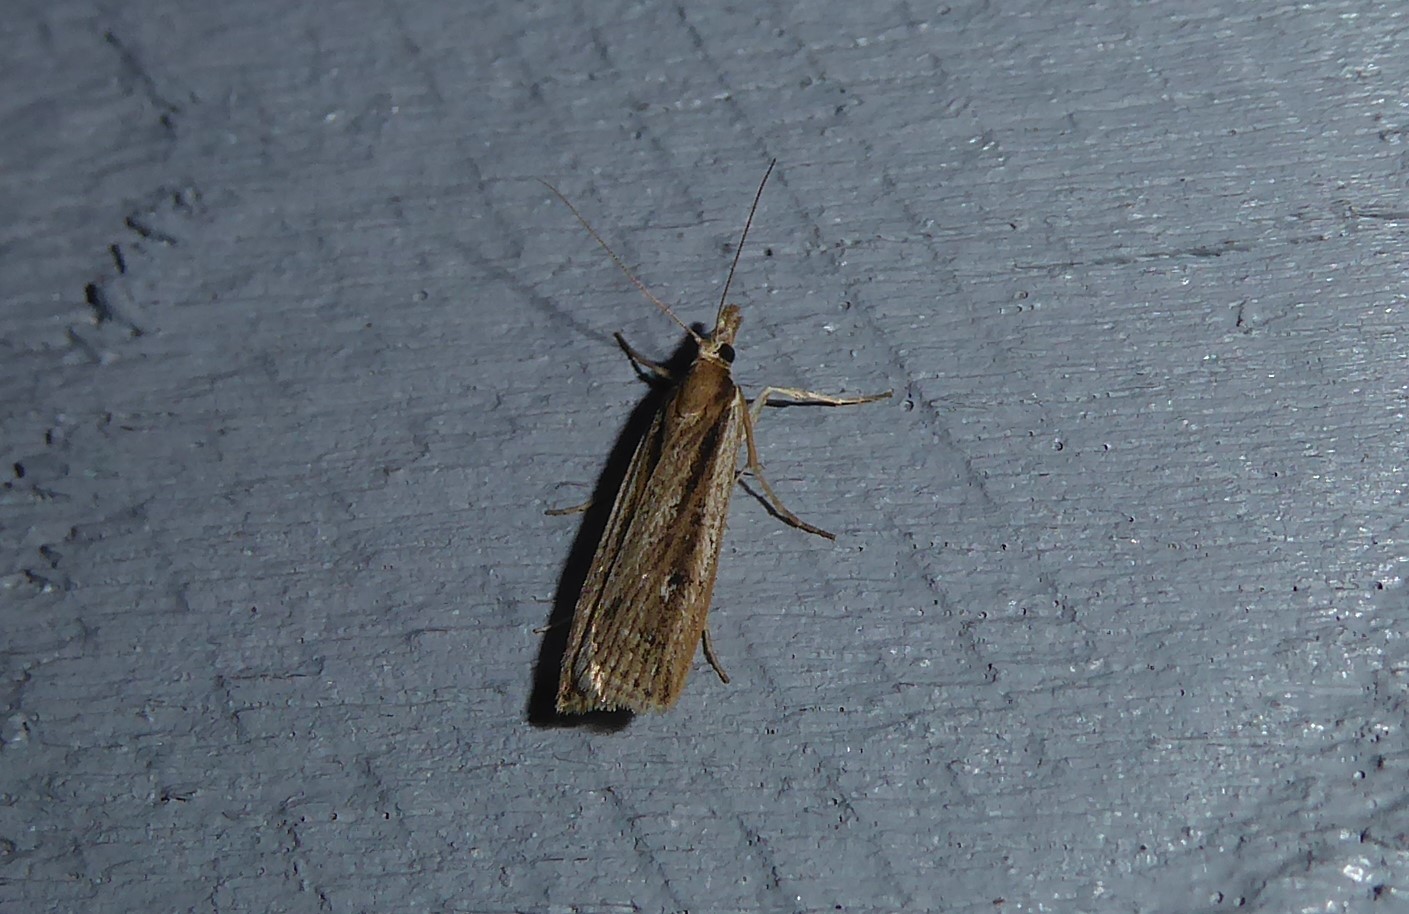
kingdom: Animalia
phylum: Arthropoda
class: Insecta
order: Lepidoptera
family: Crambidae
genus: Eudonia
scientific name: Eudonia sabulosella
